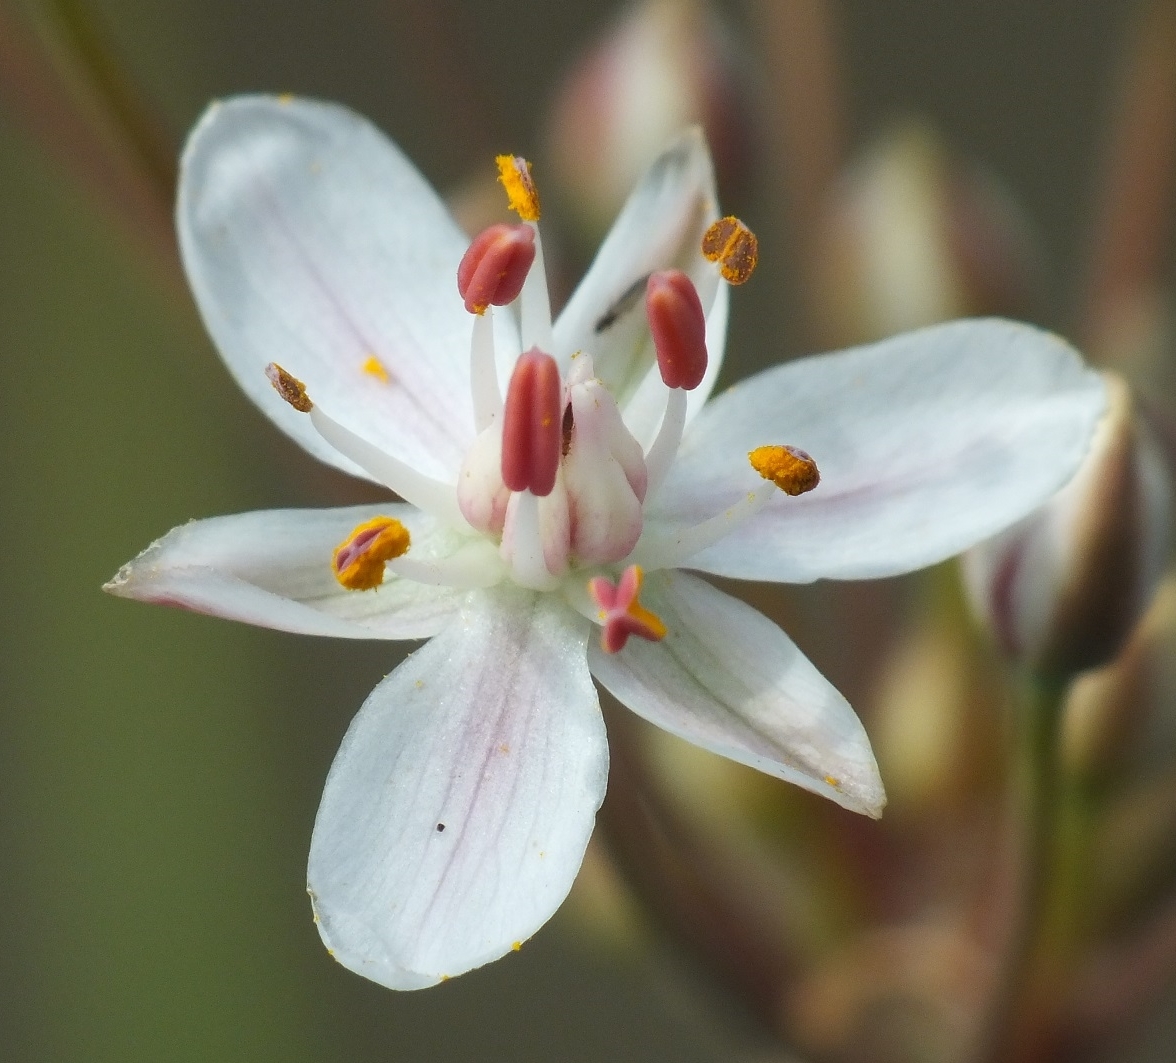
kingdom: Plantae
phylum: Tracheophyta
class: Liliopsida
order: Alismatales
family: Butomaceae
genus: Butomus
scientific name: Butomus umbellatus
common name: Flowering-rush
